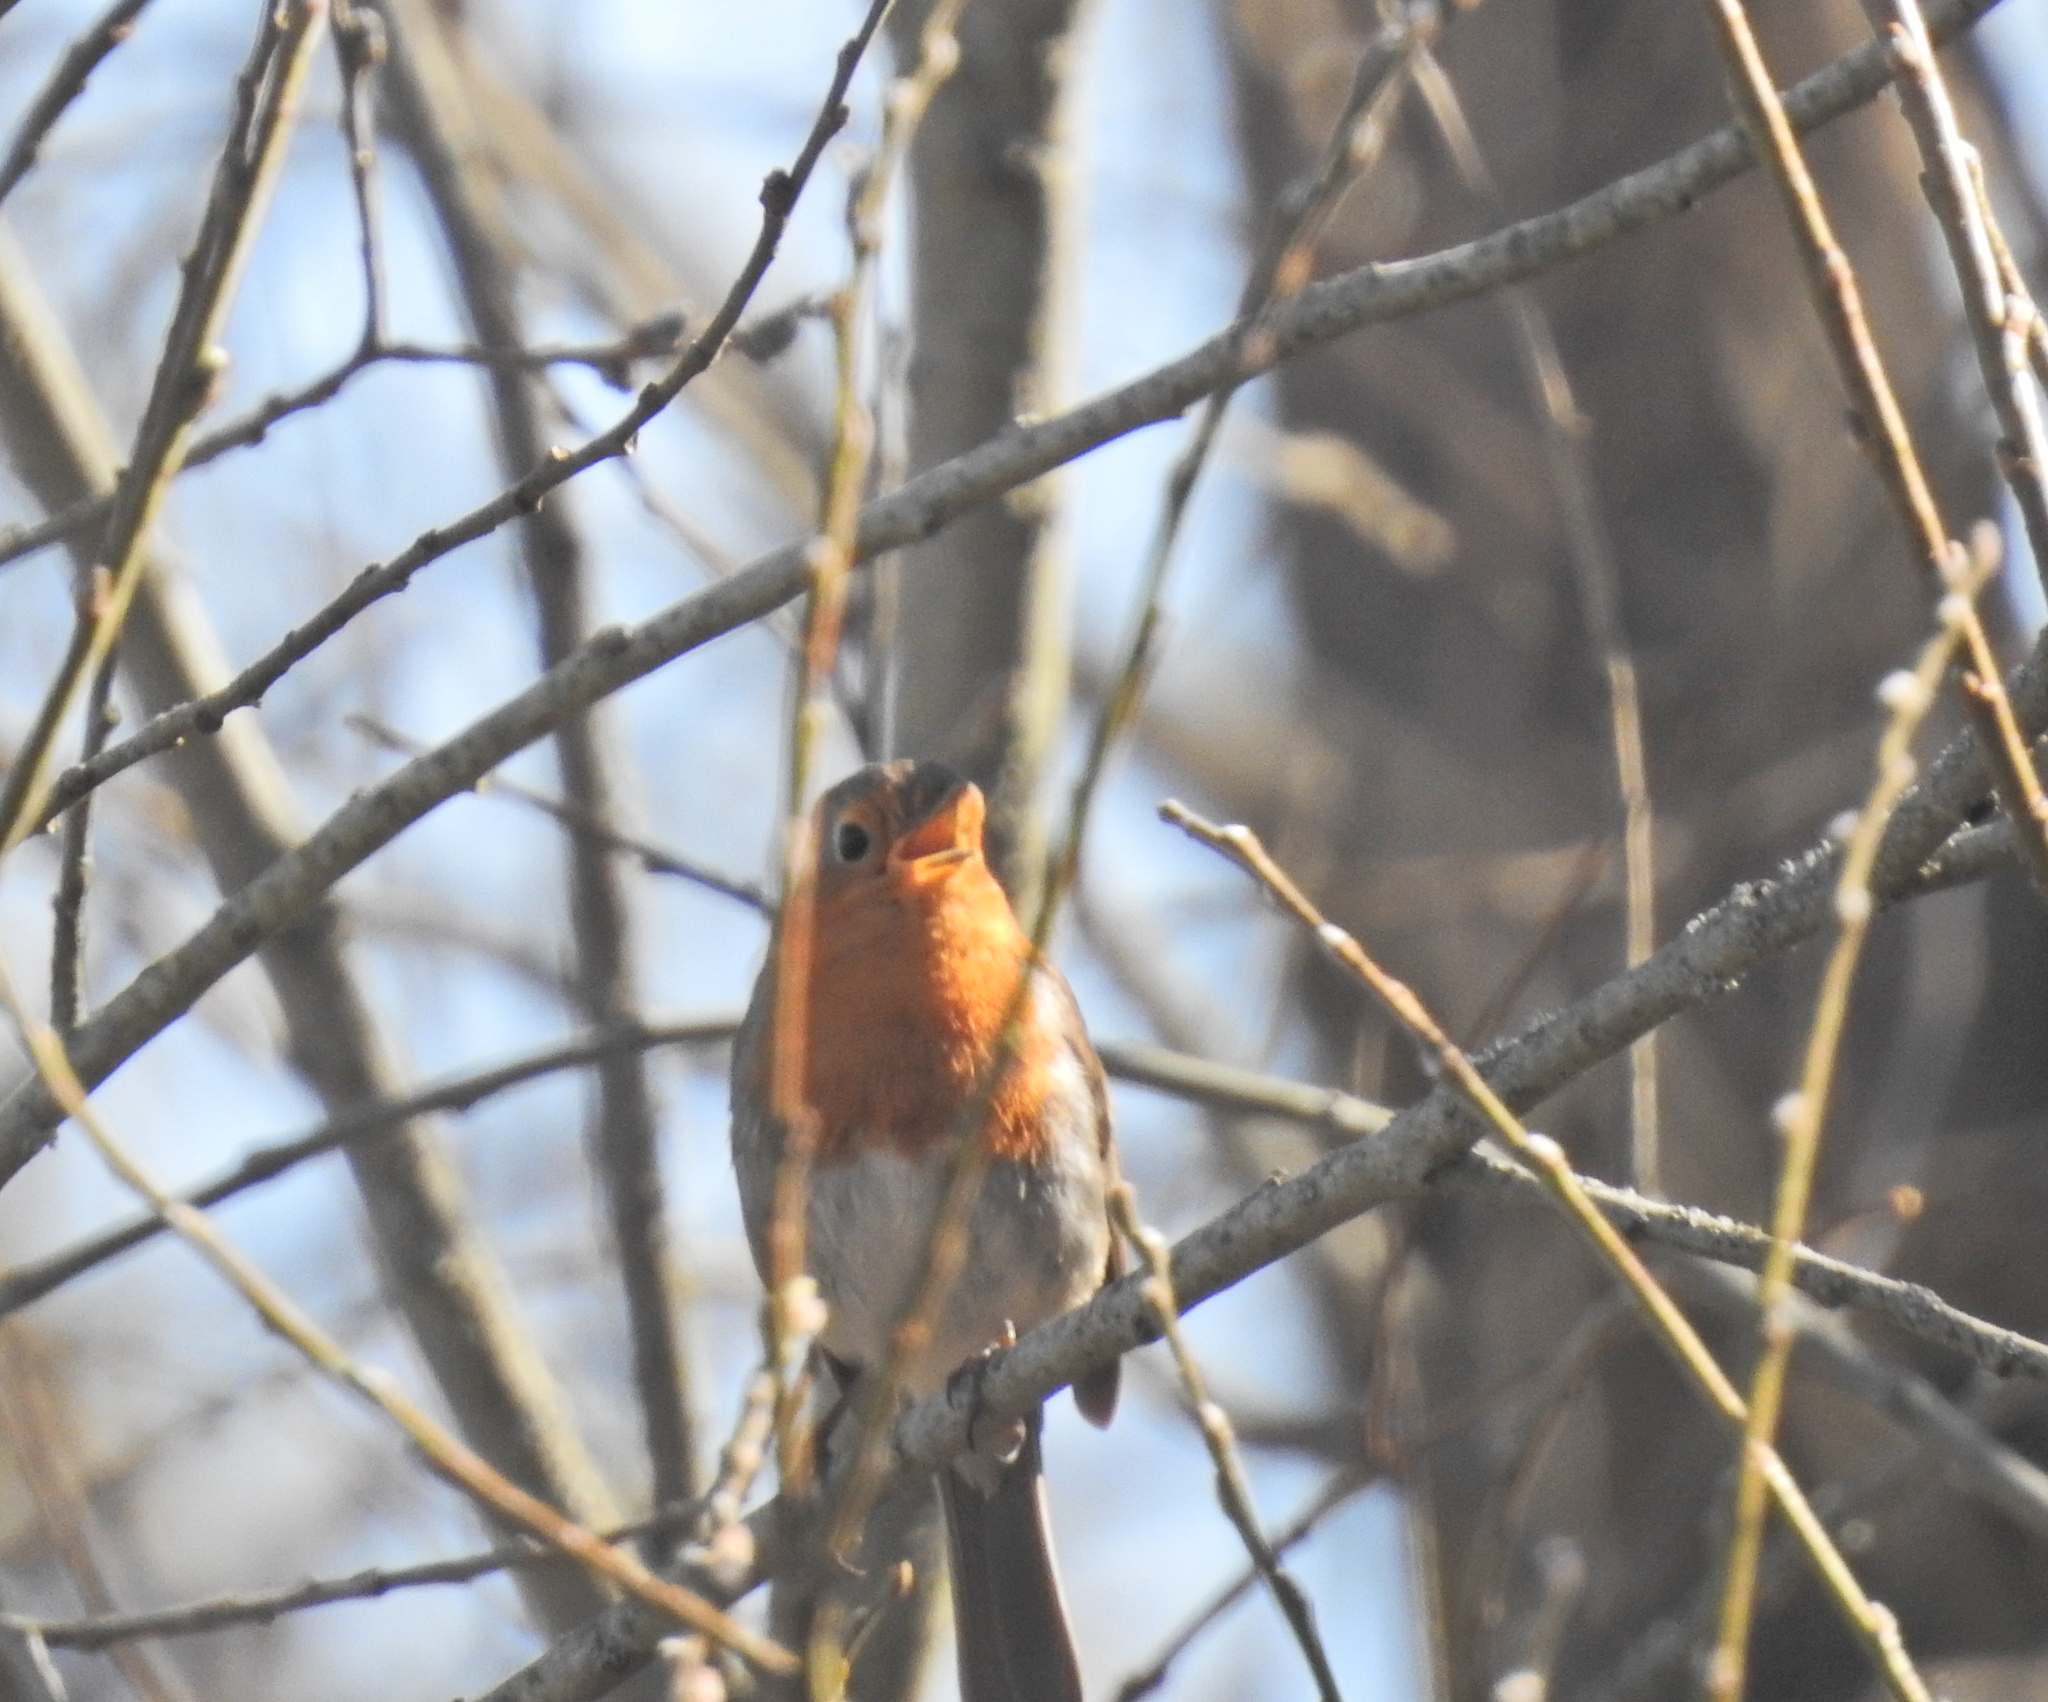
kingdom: Animalia
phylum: Chordata
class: Aves
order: Passeriformes
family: Muscicapidae
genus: Erithacus
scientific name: Erithacus rubecula
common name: European robin
